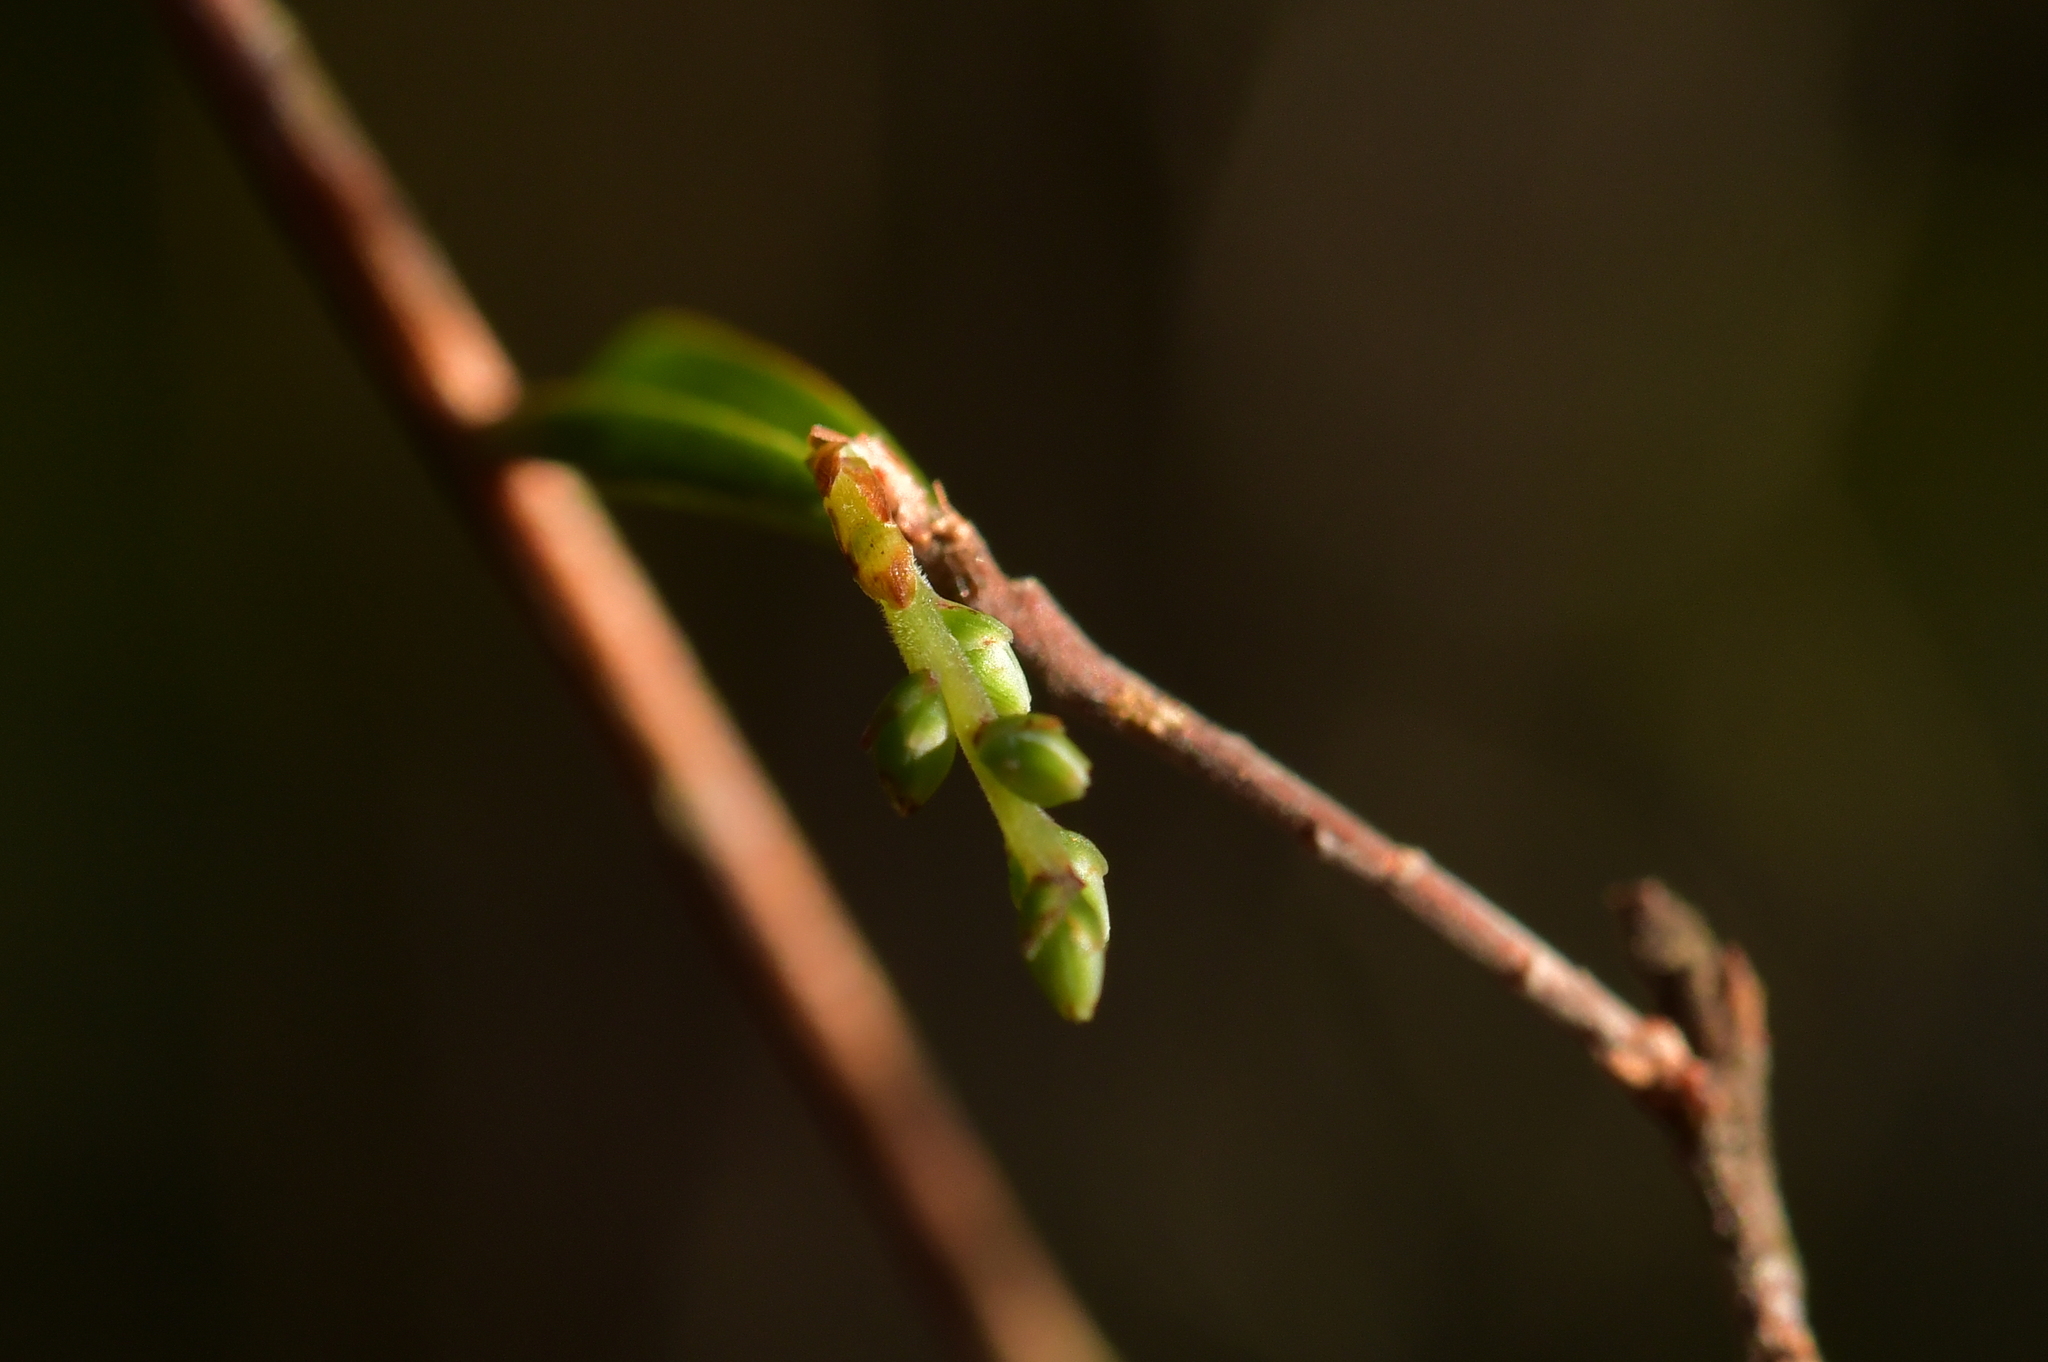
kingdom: Plantae
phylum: Tracheophyta
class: Magnoliopsida
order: Ericales
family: Ericaceae
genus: Leucopogon
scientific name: Leucopogon fasciculatus
